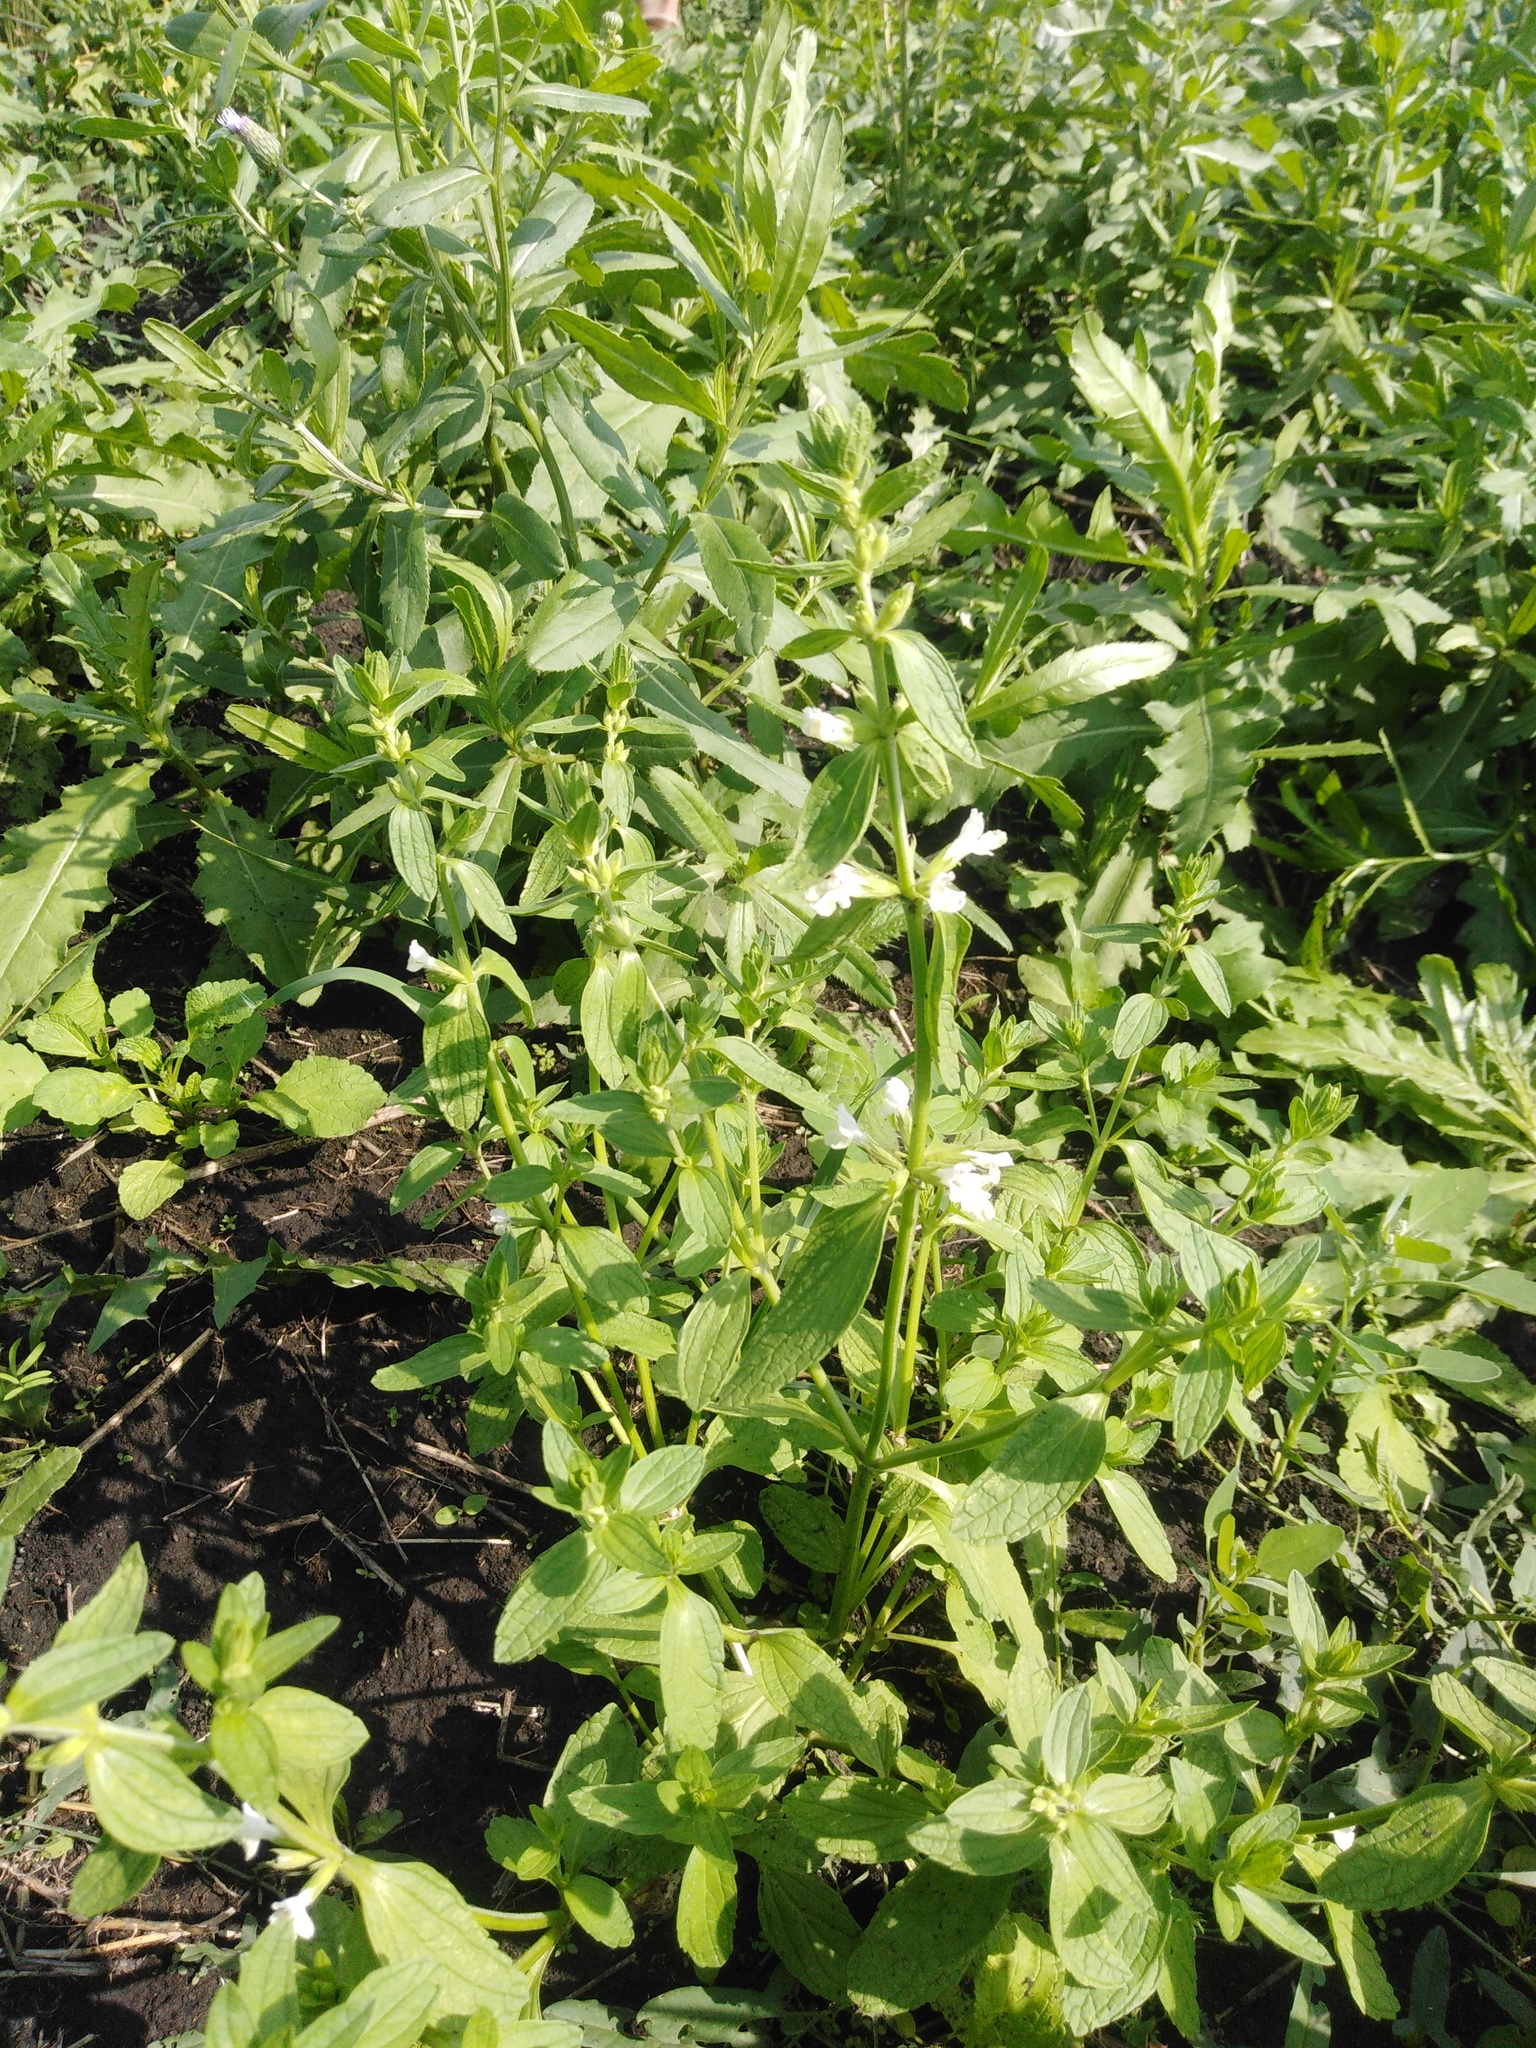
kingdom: Plantae
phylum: Tracheophyta
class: Magnoliopsida
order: Lamiales
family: Lamiaceae
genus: Stachys
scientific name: Stachys annua
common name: Annual yellow-woundwort
